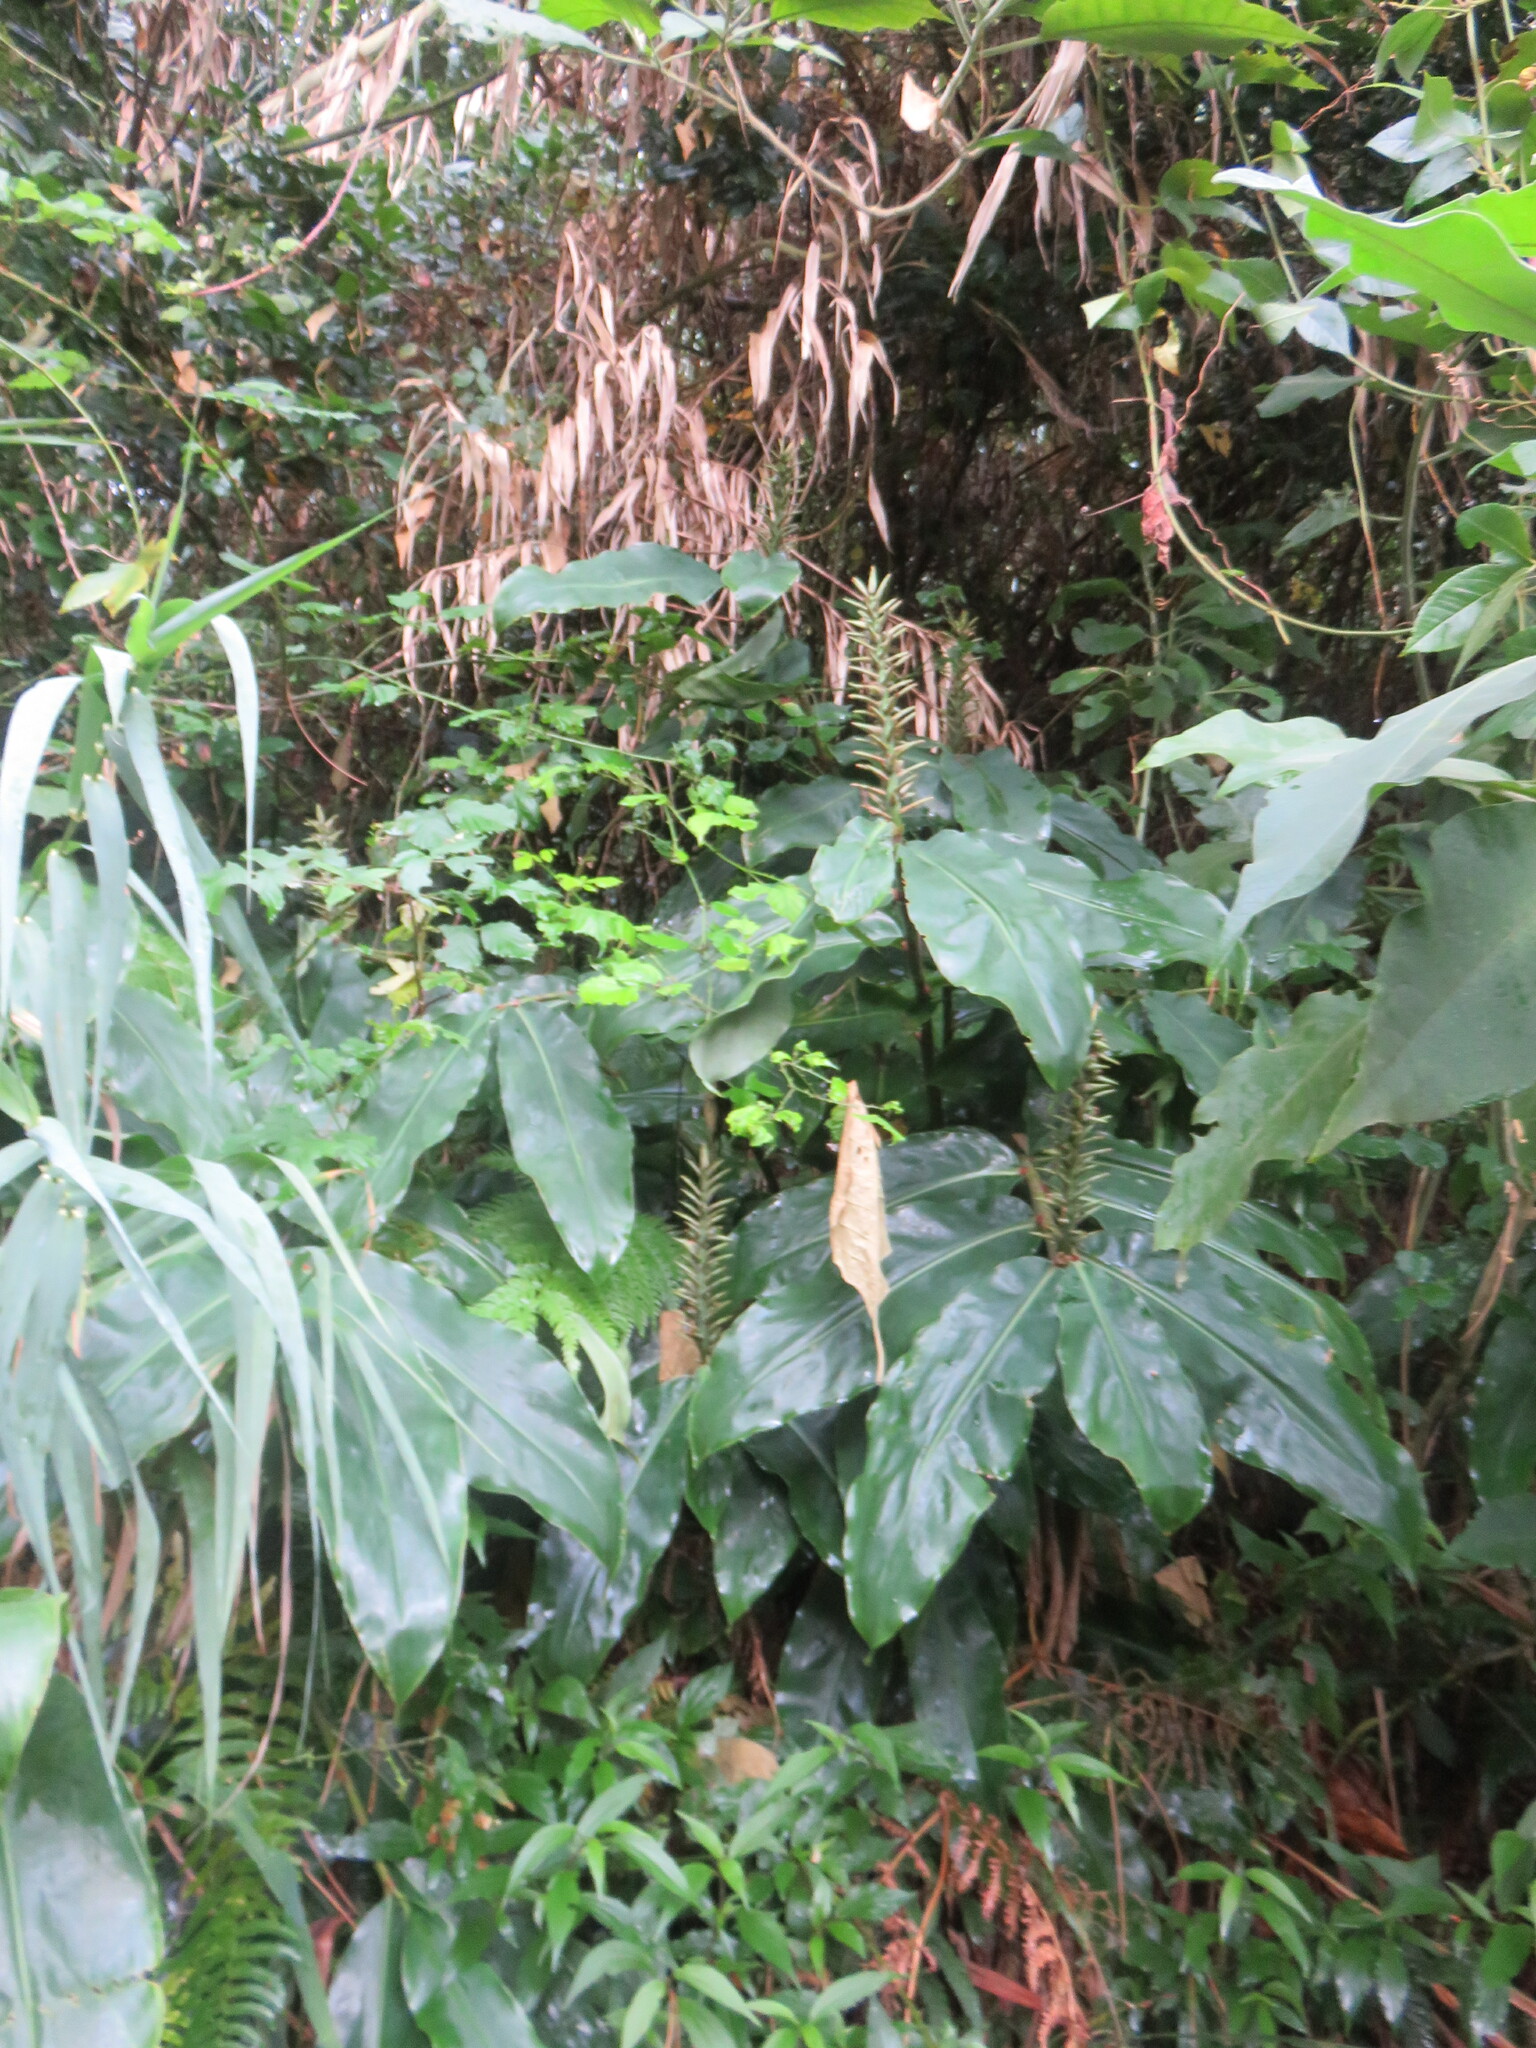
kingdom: Plantae
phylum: Tracheophyta
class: Liliopsida
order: Zingiberales
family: Zingiberaceae
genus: Hedychium
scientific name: Hedychium gardnerianum
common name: Himalayan ginger
